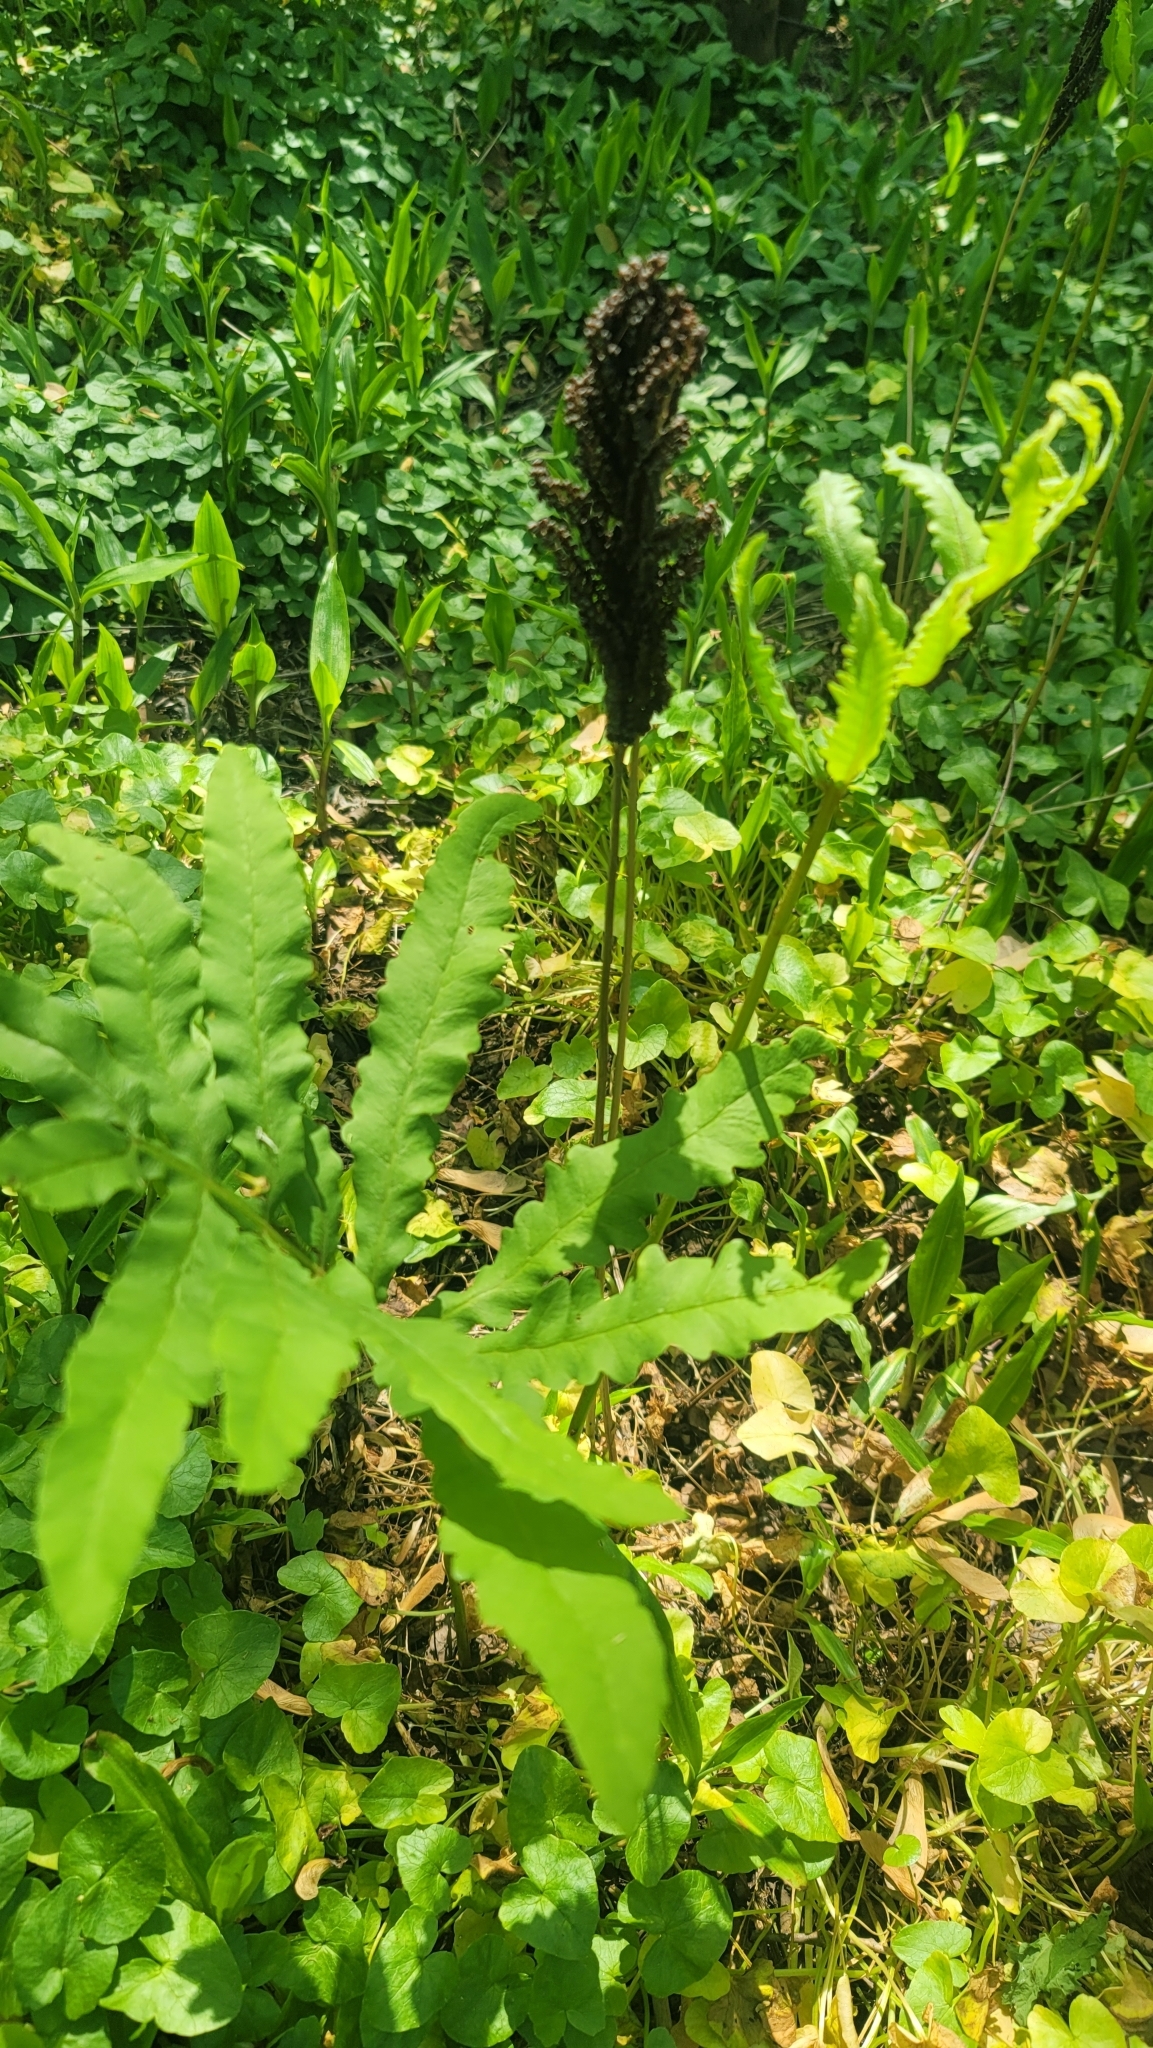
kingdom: Plantae
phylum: Tracheophyta
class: Polypodiopsida
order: Polypodiales
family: Onocleaceae
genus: Onoclea
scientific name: Onoclea sensibilis
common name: Sensitive fern
